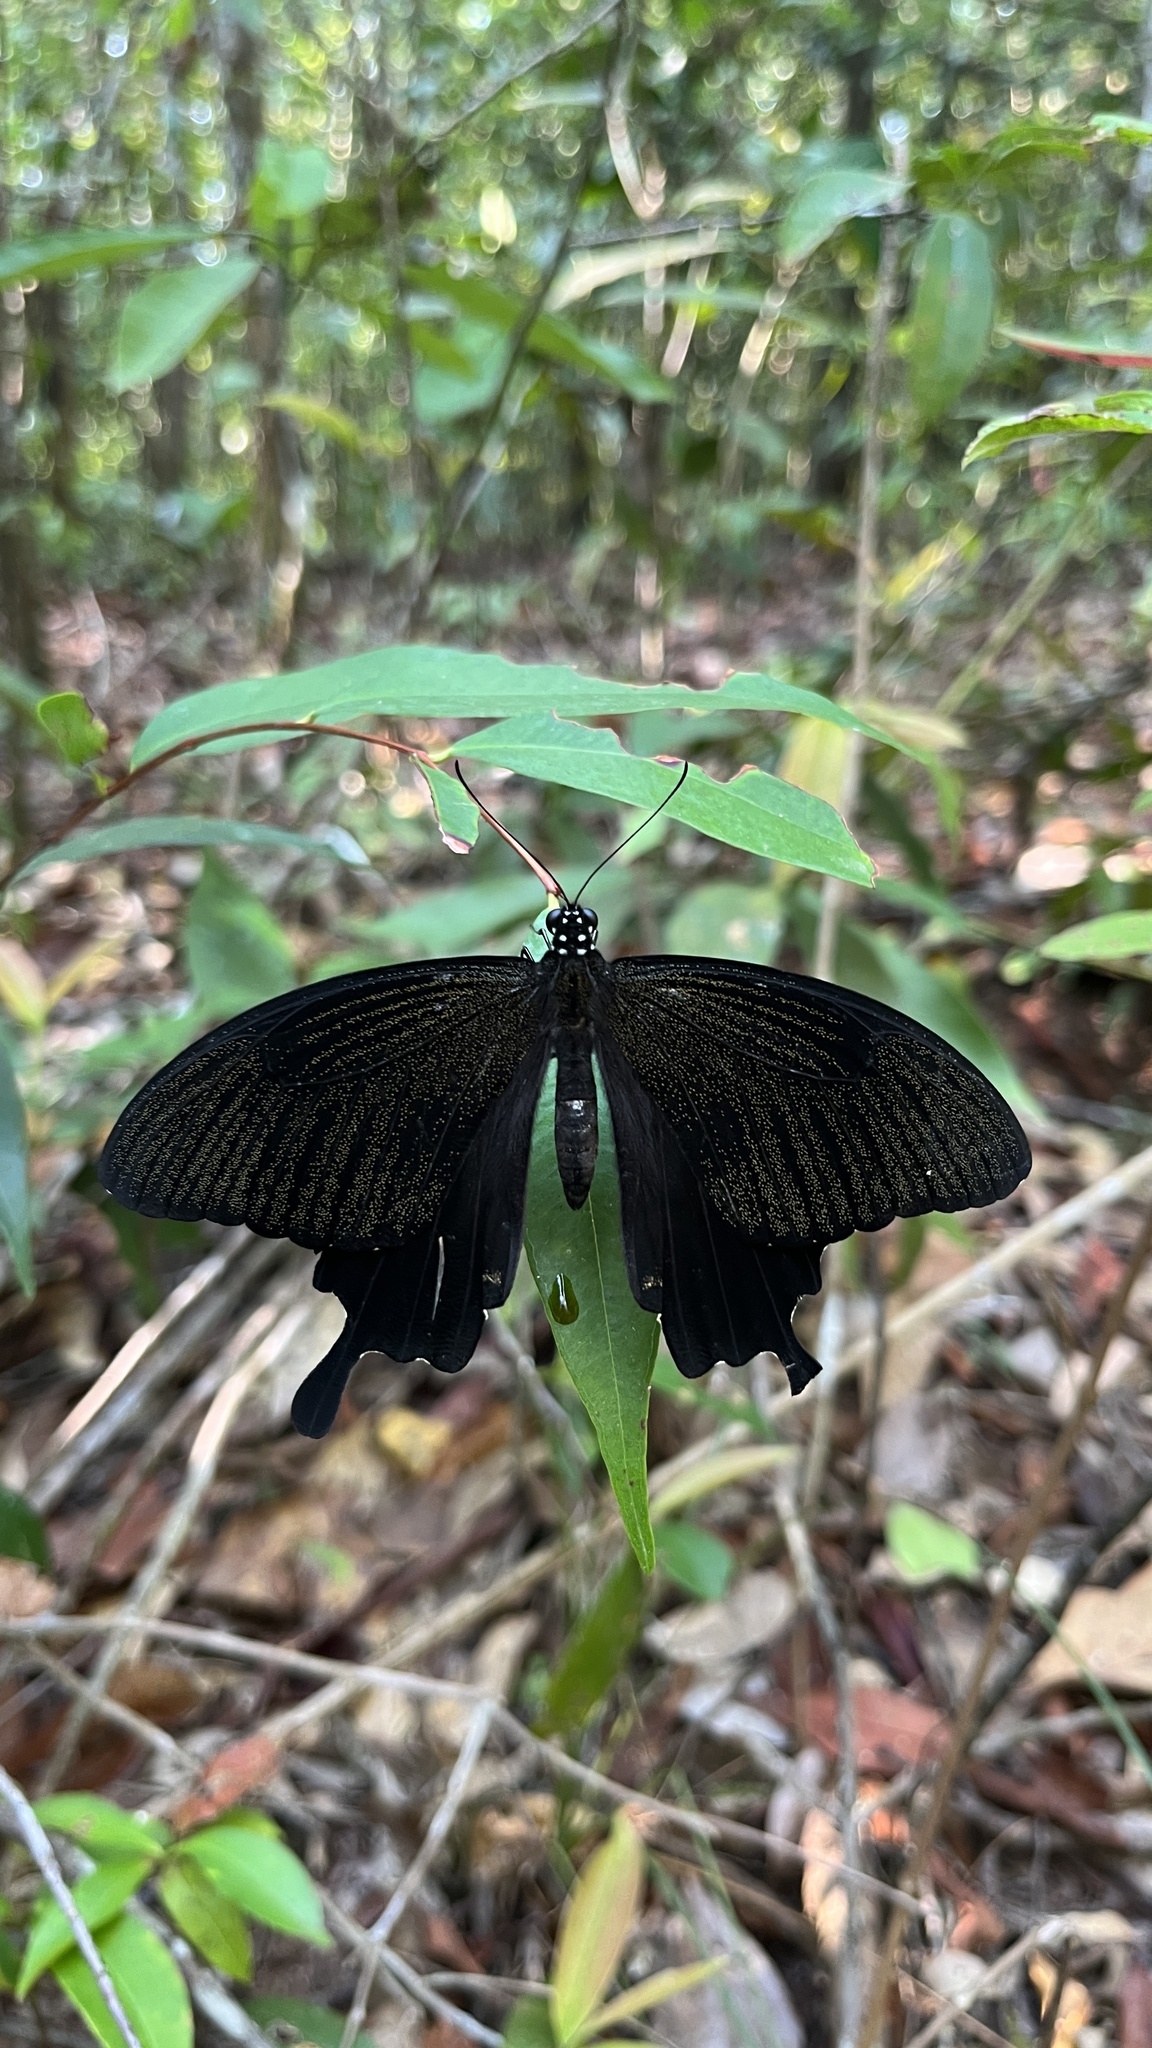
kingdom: Animalia
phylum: Arthropoda
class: Insecta
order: Lepidoptera
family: Papilionidae
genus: Papilio
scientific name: Papilio nephelus
